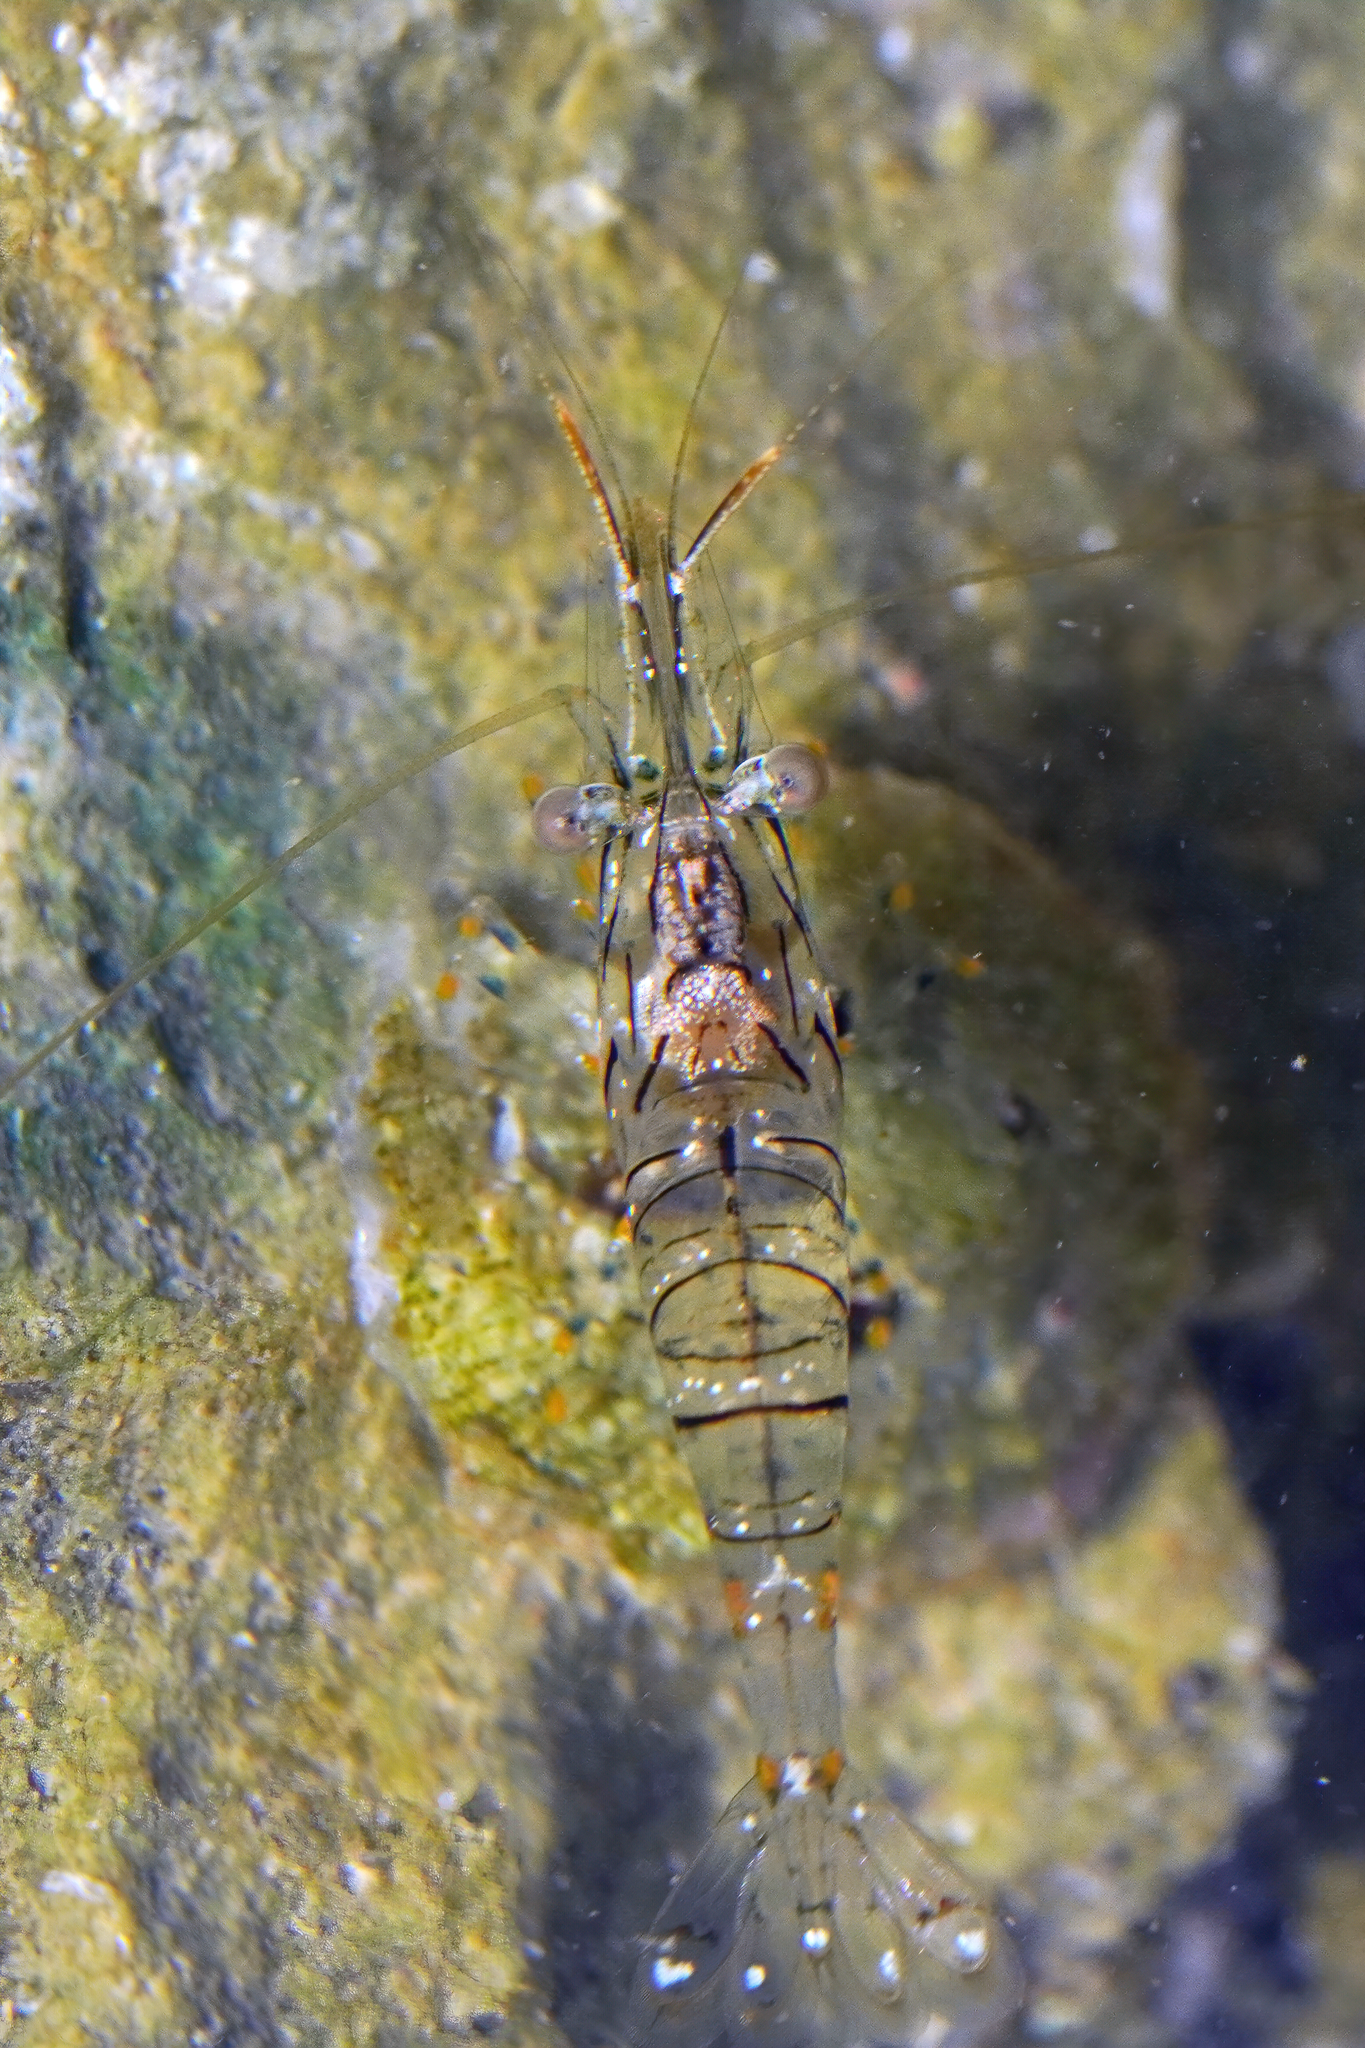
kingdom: Animalia
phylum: Arthropoda
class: Malacostraca
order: Decapoda
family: Palaemonidae
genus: Palaemon
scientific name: Palaemon elegans
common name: Grass prawm
